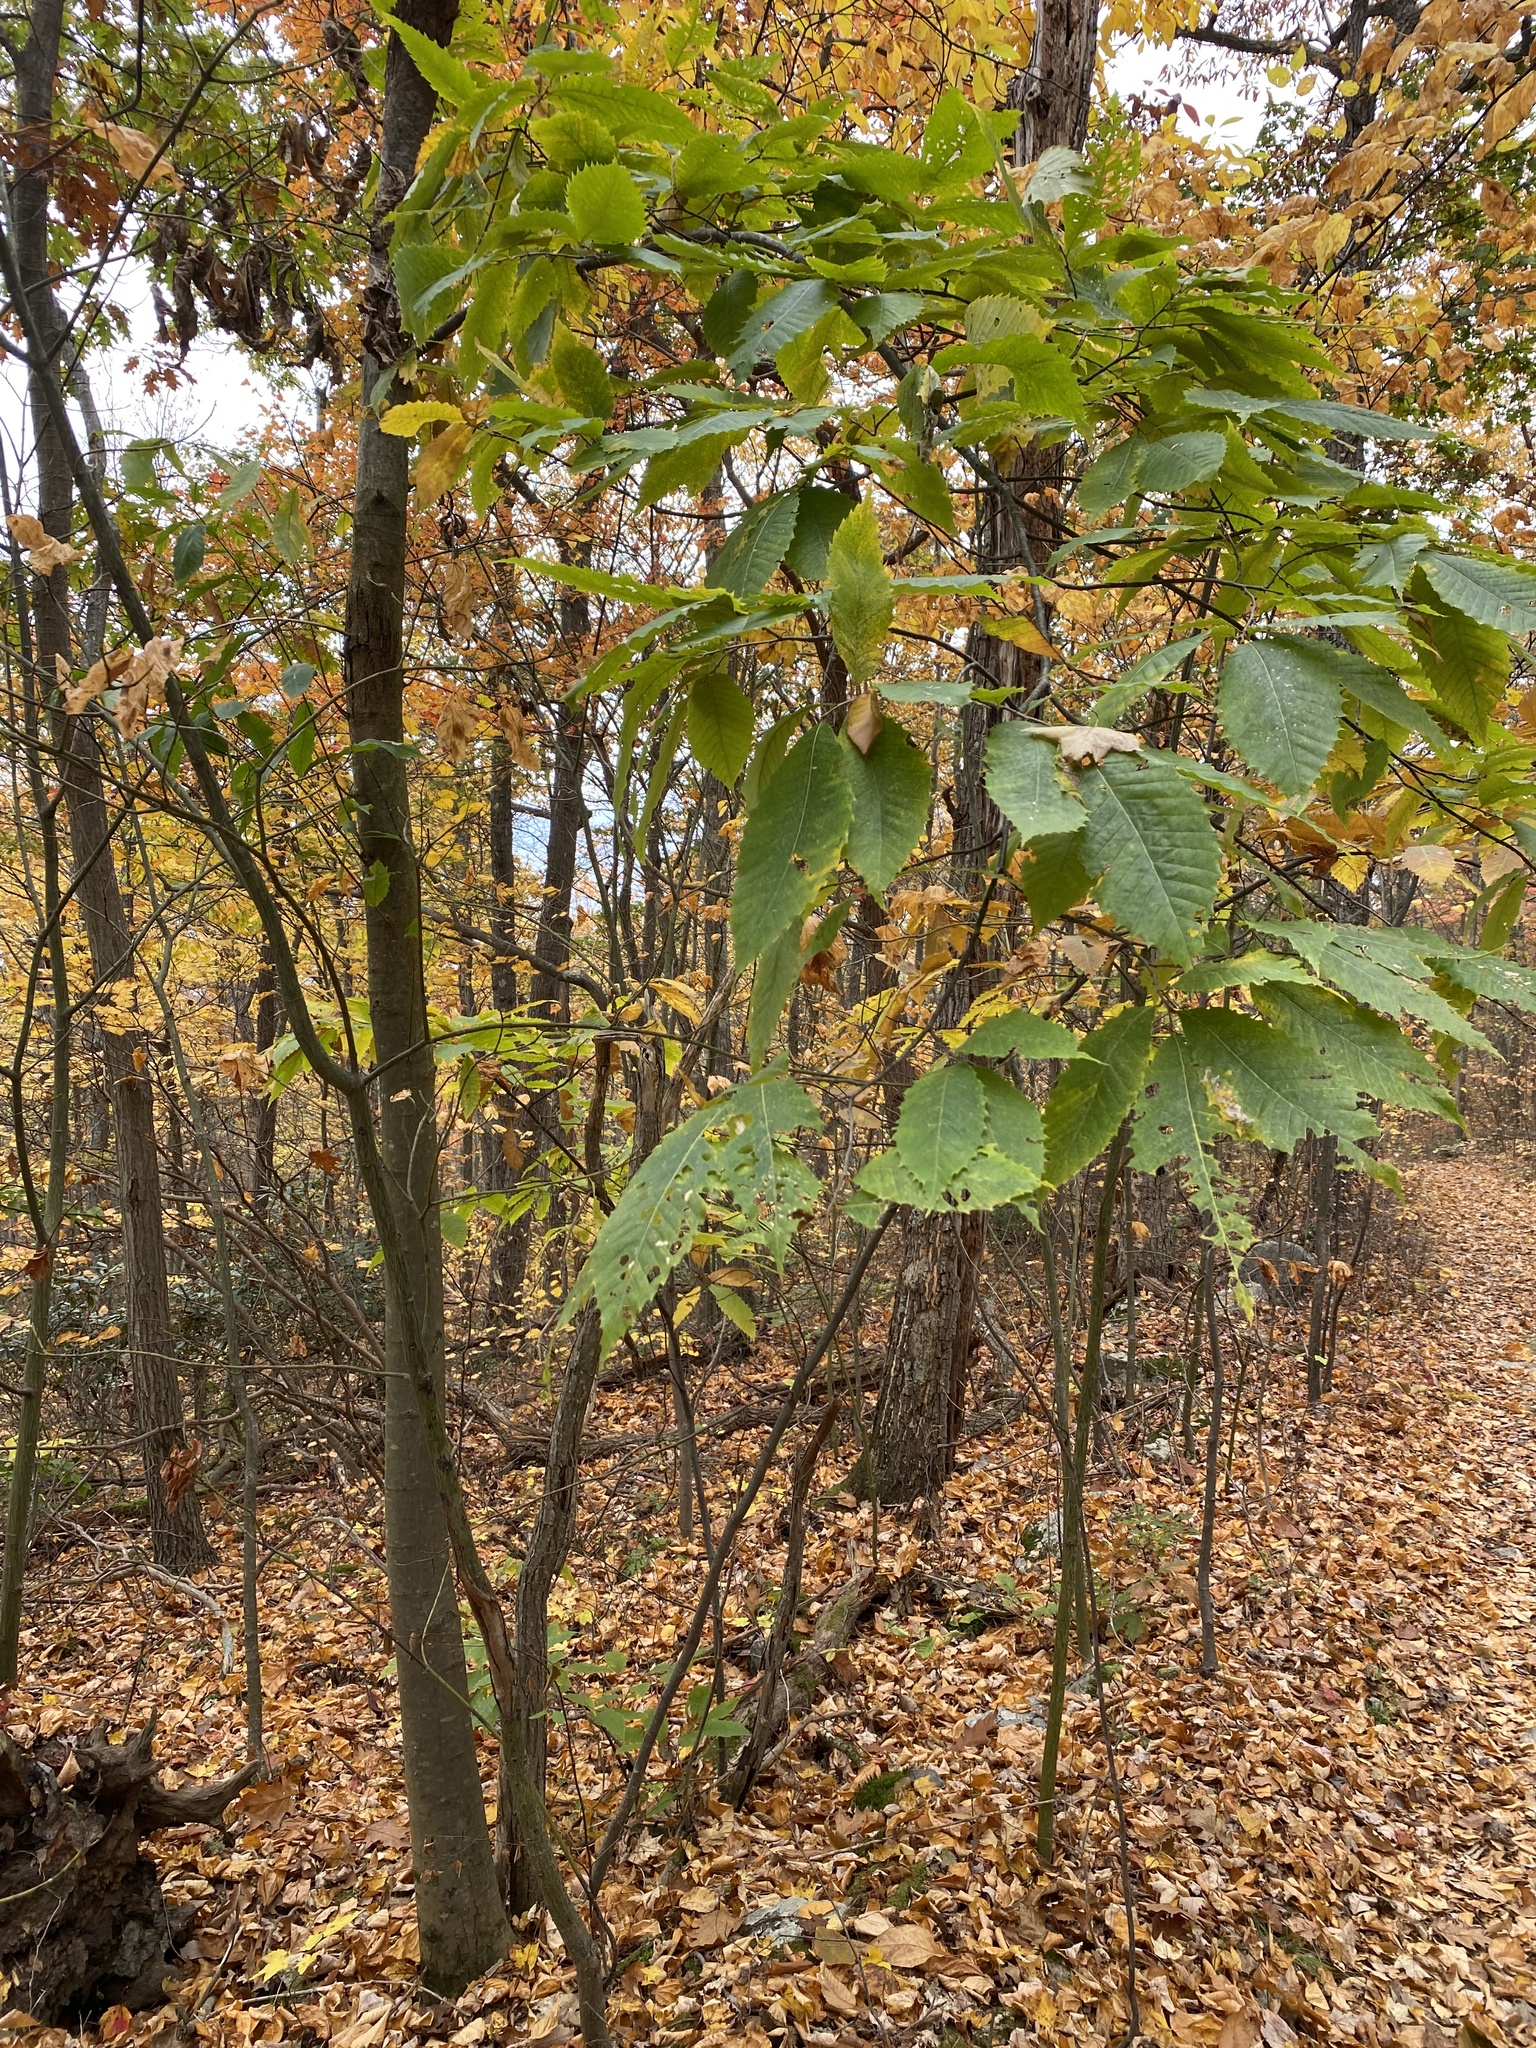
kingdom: Plantae
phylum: Tracheophyta
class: Magnoliopsida
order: Fagales
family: Fagaceae
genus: Castanea
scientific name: Castanea dentata
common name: American chestnut
